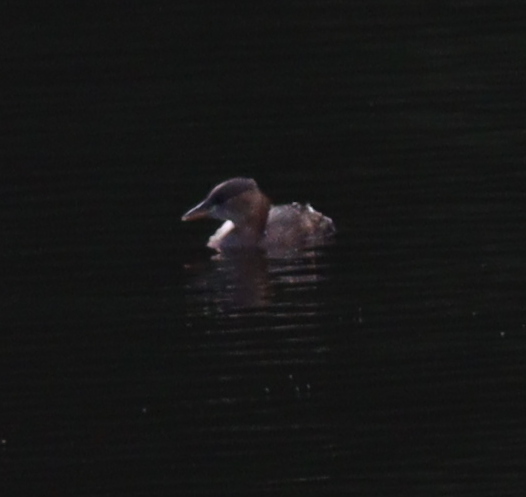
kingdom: Animalia
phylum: Chordata
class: Aves
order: Podicipediformes
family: Podicipedidae
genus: Tachybaptus
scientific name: Tachybaptus ruficollis
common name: Little grebe
